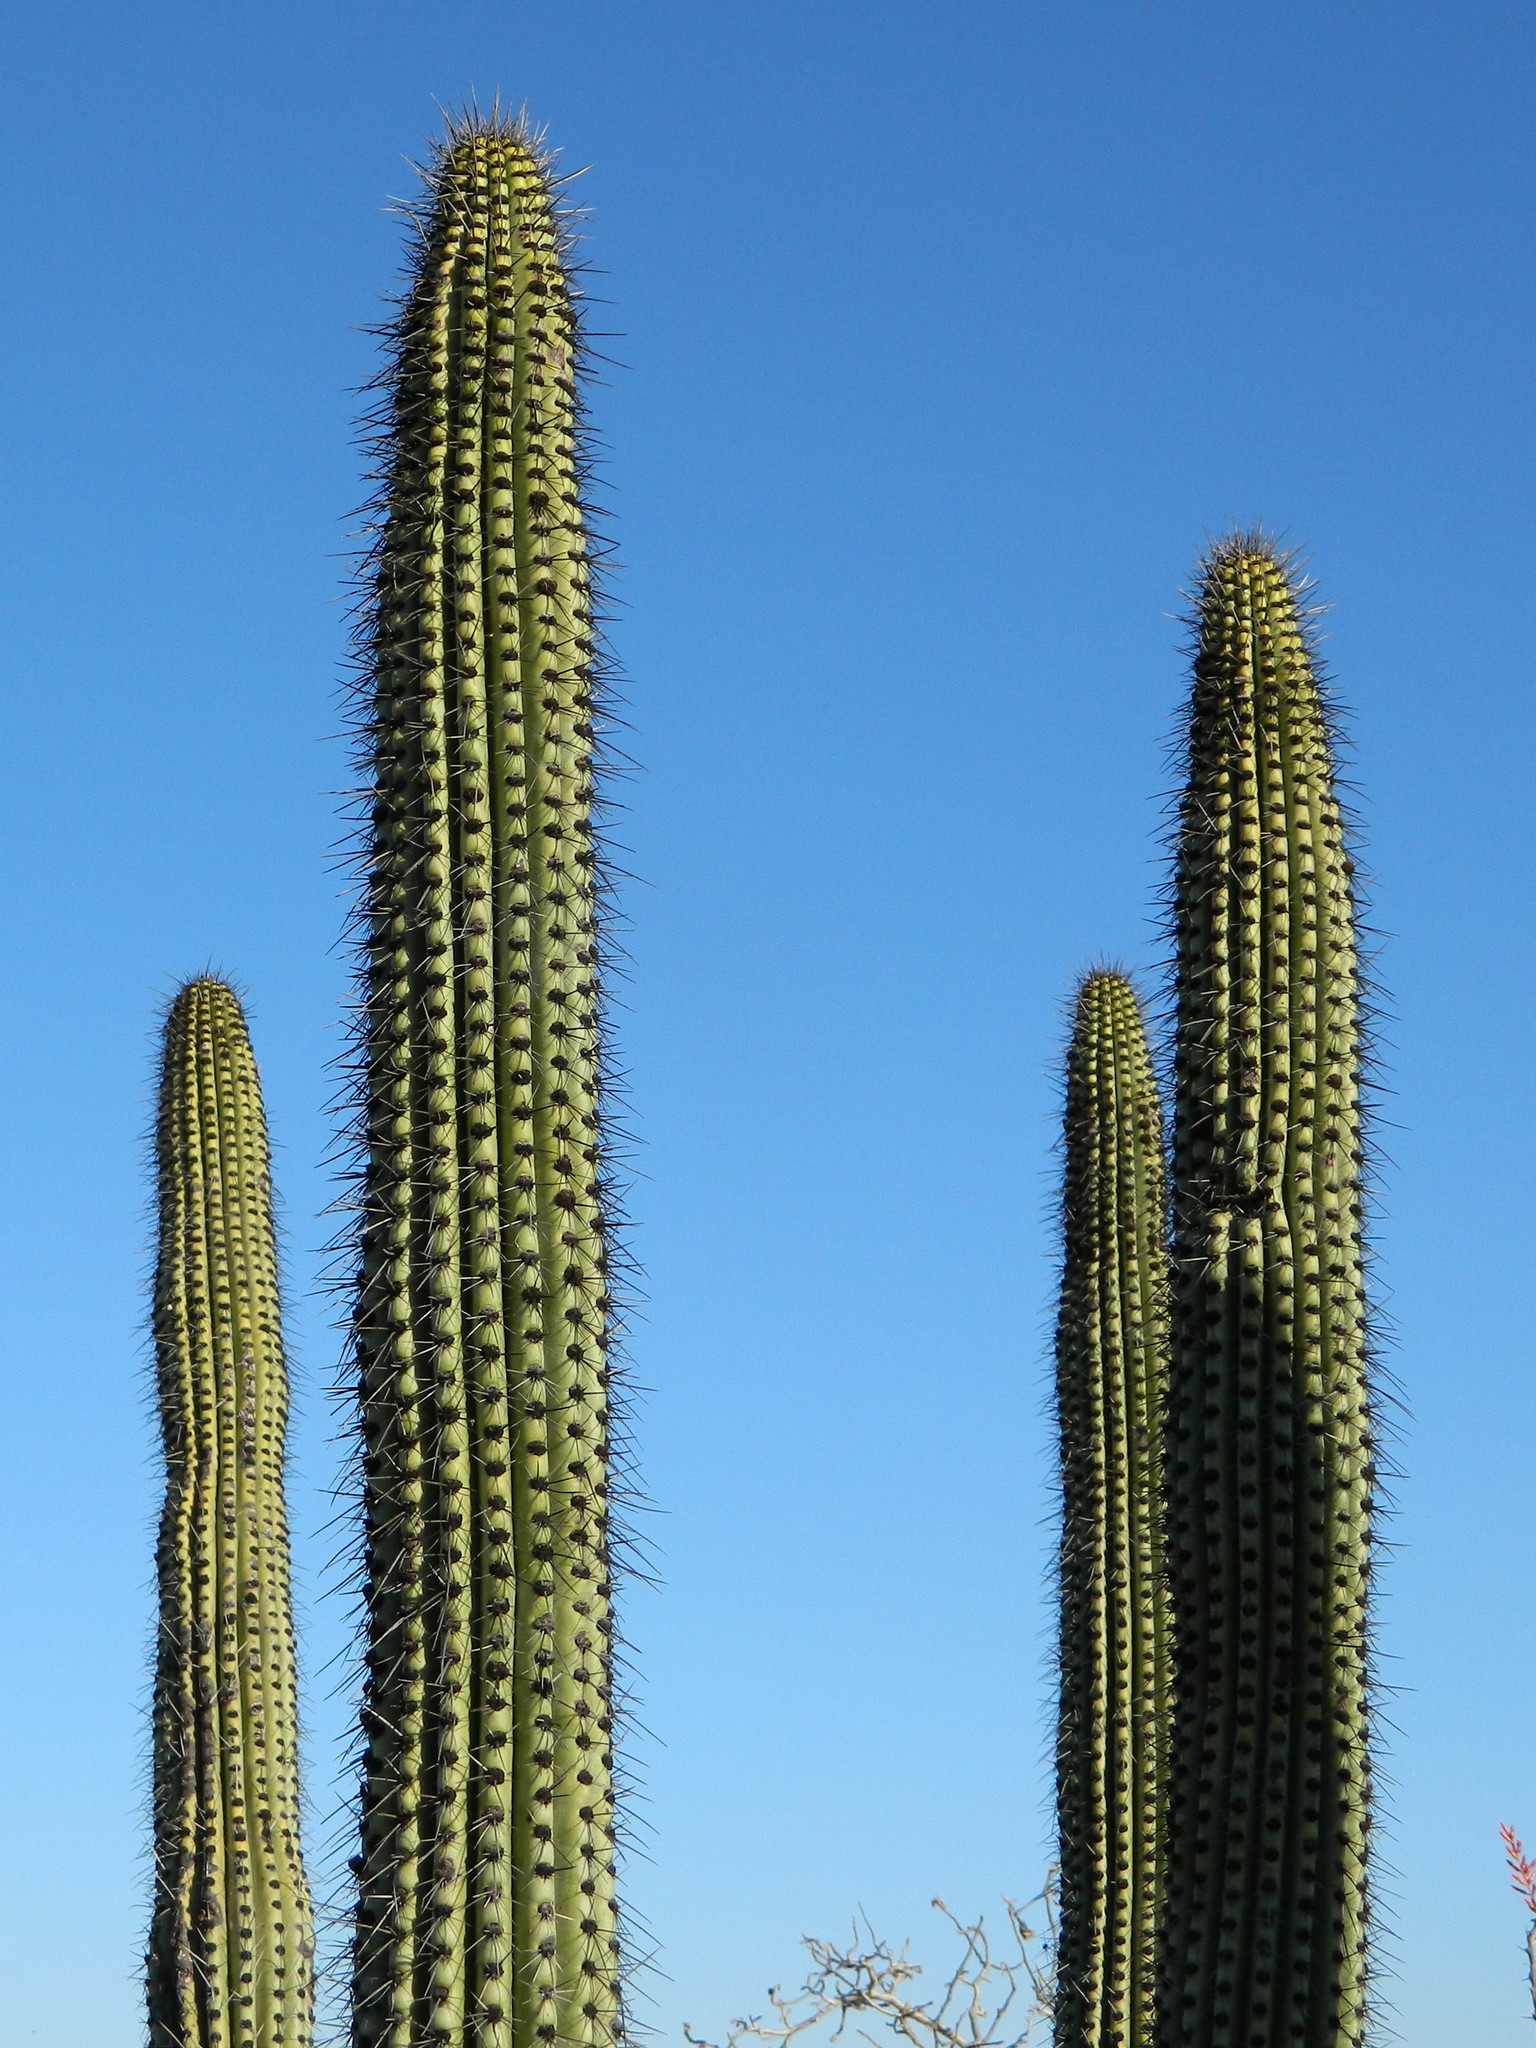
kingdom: Plantae
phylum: Tracheophyta
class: Magnoliopsida
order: Caryophyllales
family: Cactaceae
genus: Stenocereus
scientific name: Stenocereus thurberi
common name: Organ pipe cactus
